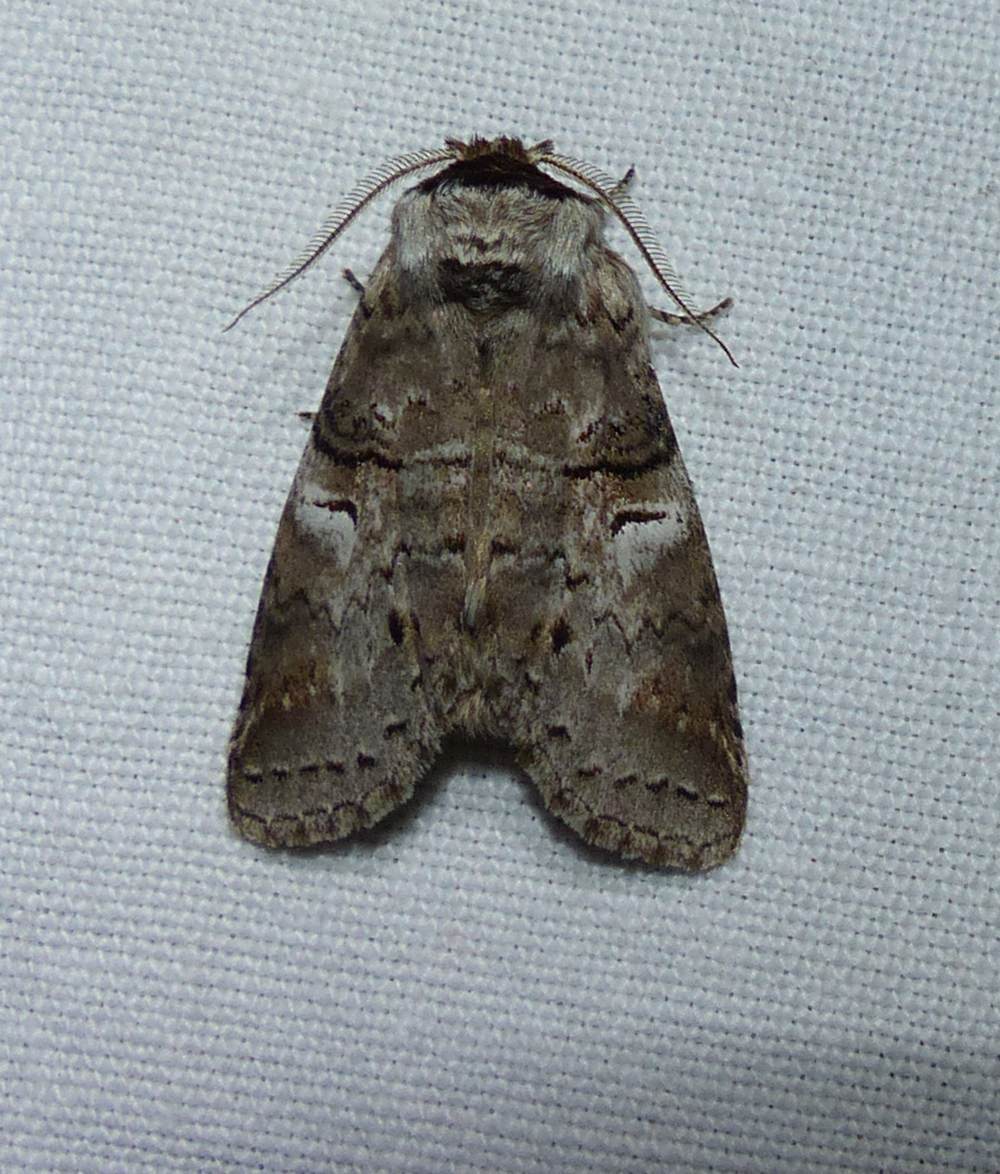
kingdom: Animalia
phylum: Arthropoda
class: Insecta
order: Lepidoptera
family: Notodontidae
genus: Ellida
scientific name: Ellida caniplaga
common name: Linden prominent
